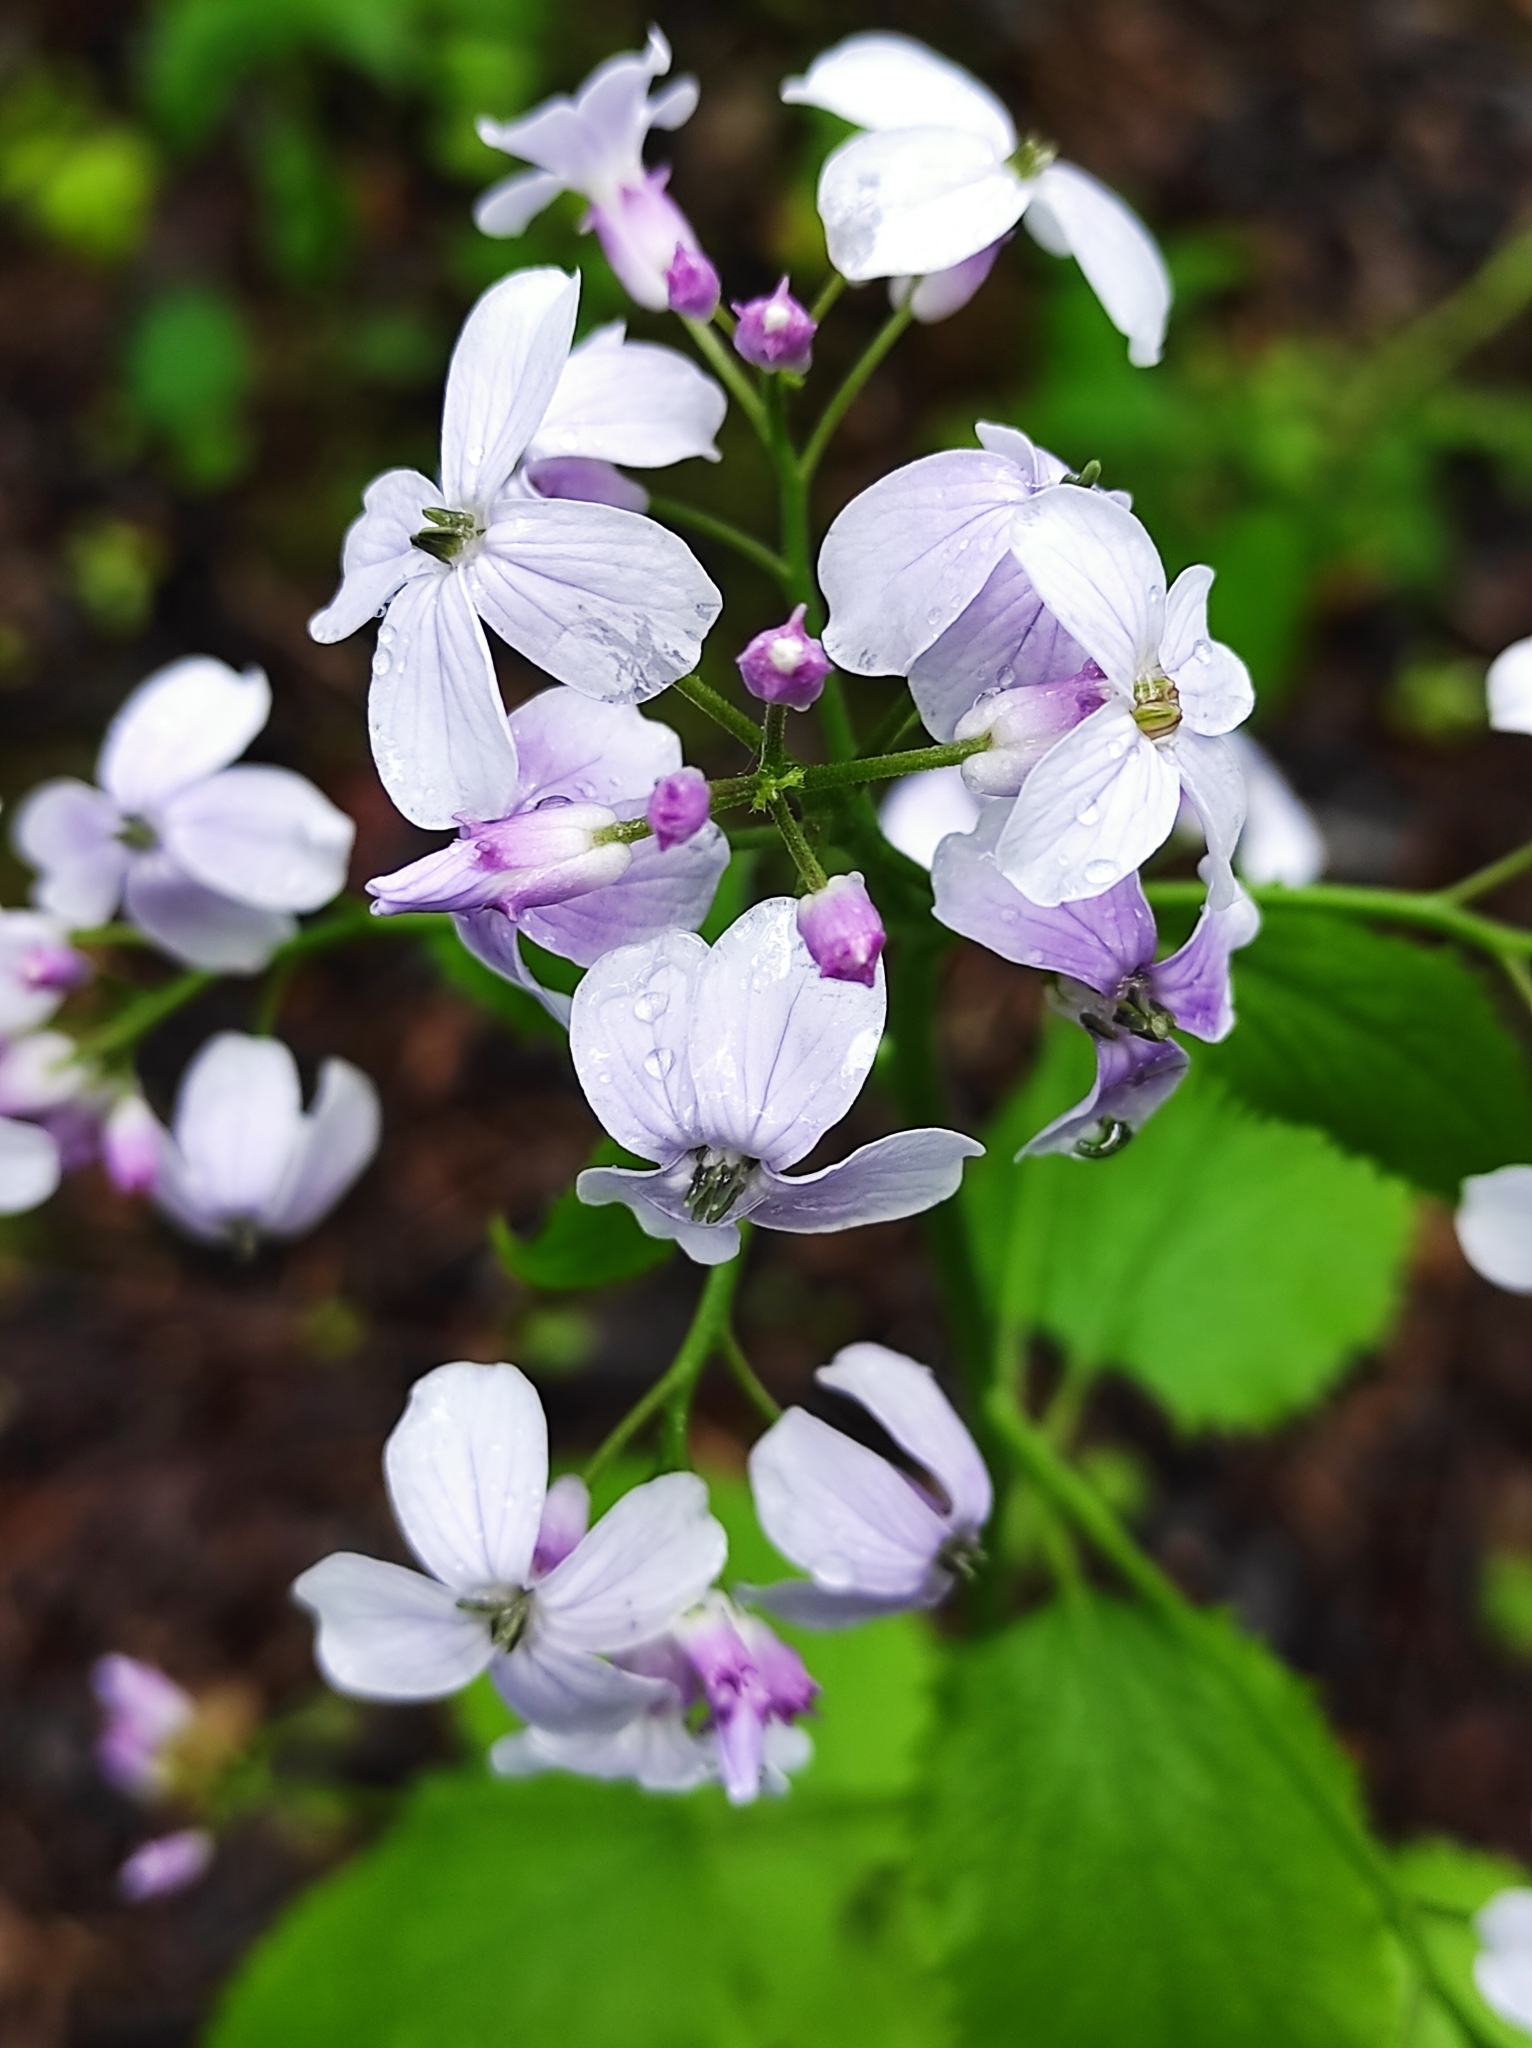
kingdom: Plantae
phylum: Tracheophyta
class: Magnoliopsida
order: Brassicales
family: Brassicaceae
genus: Lunaria
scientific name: Lunaria rediviva
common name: Perennial honesty
